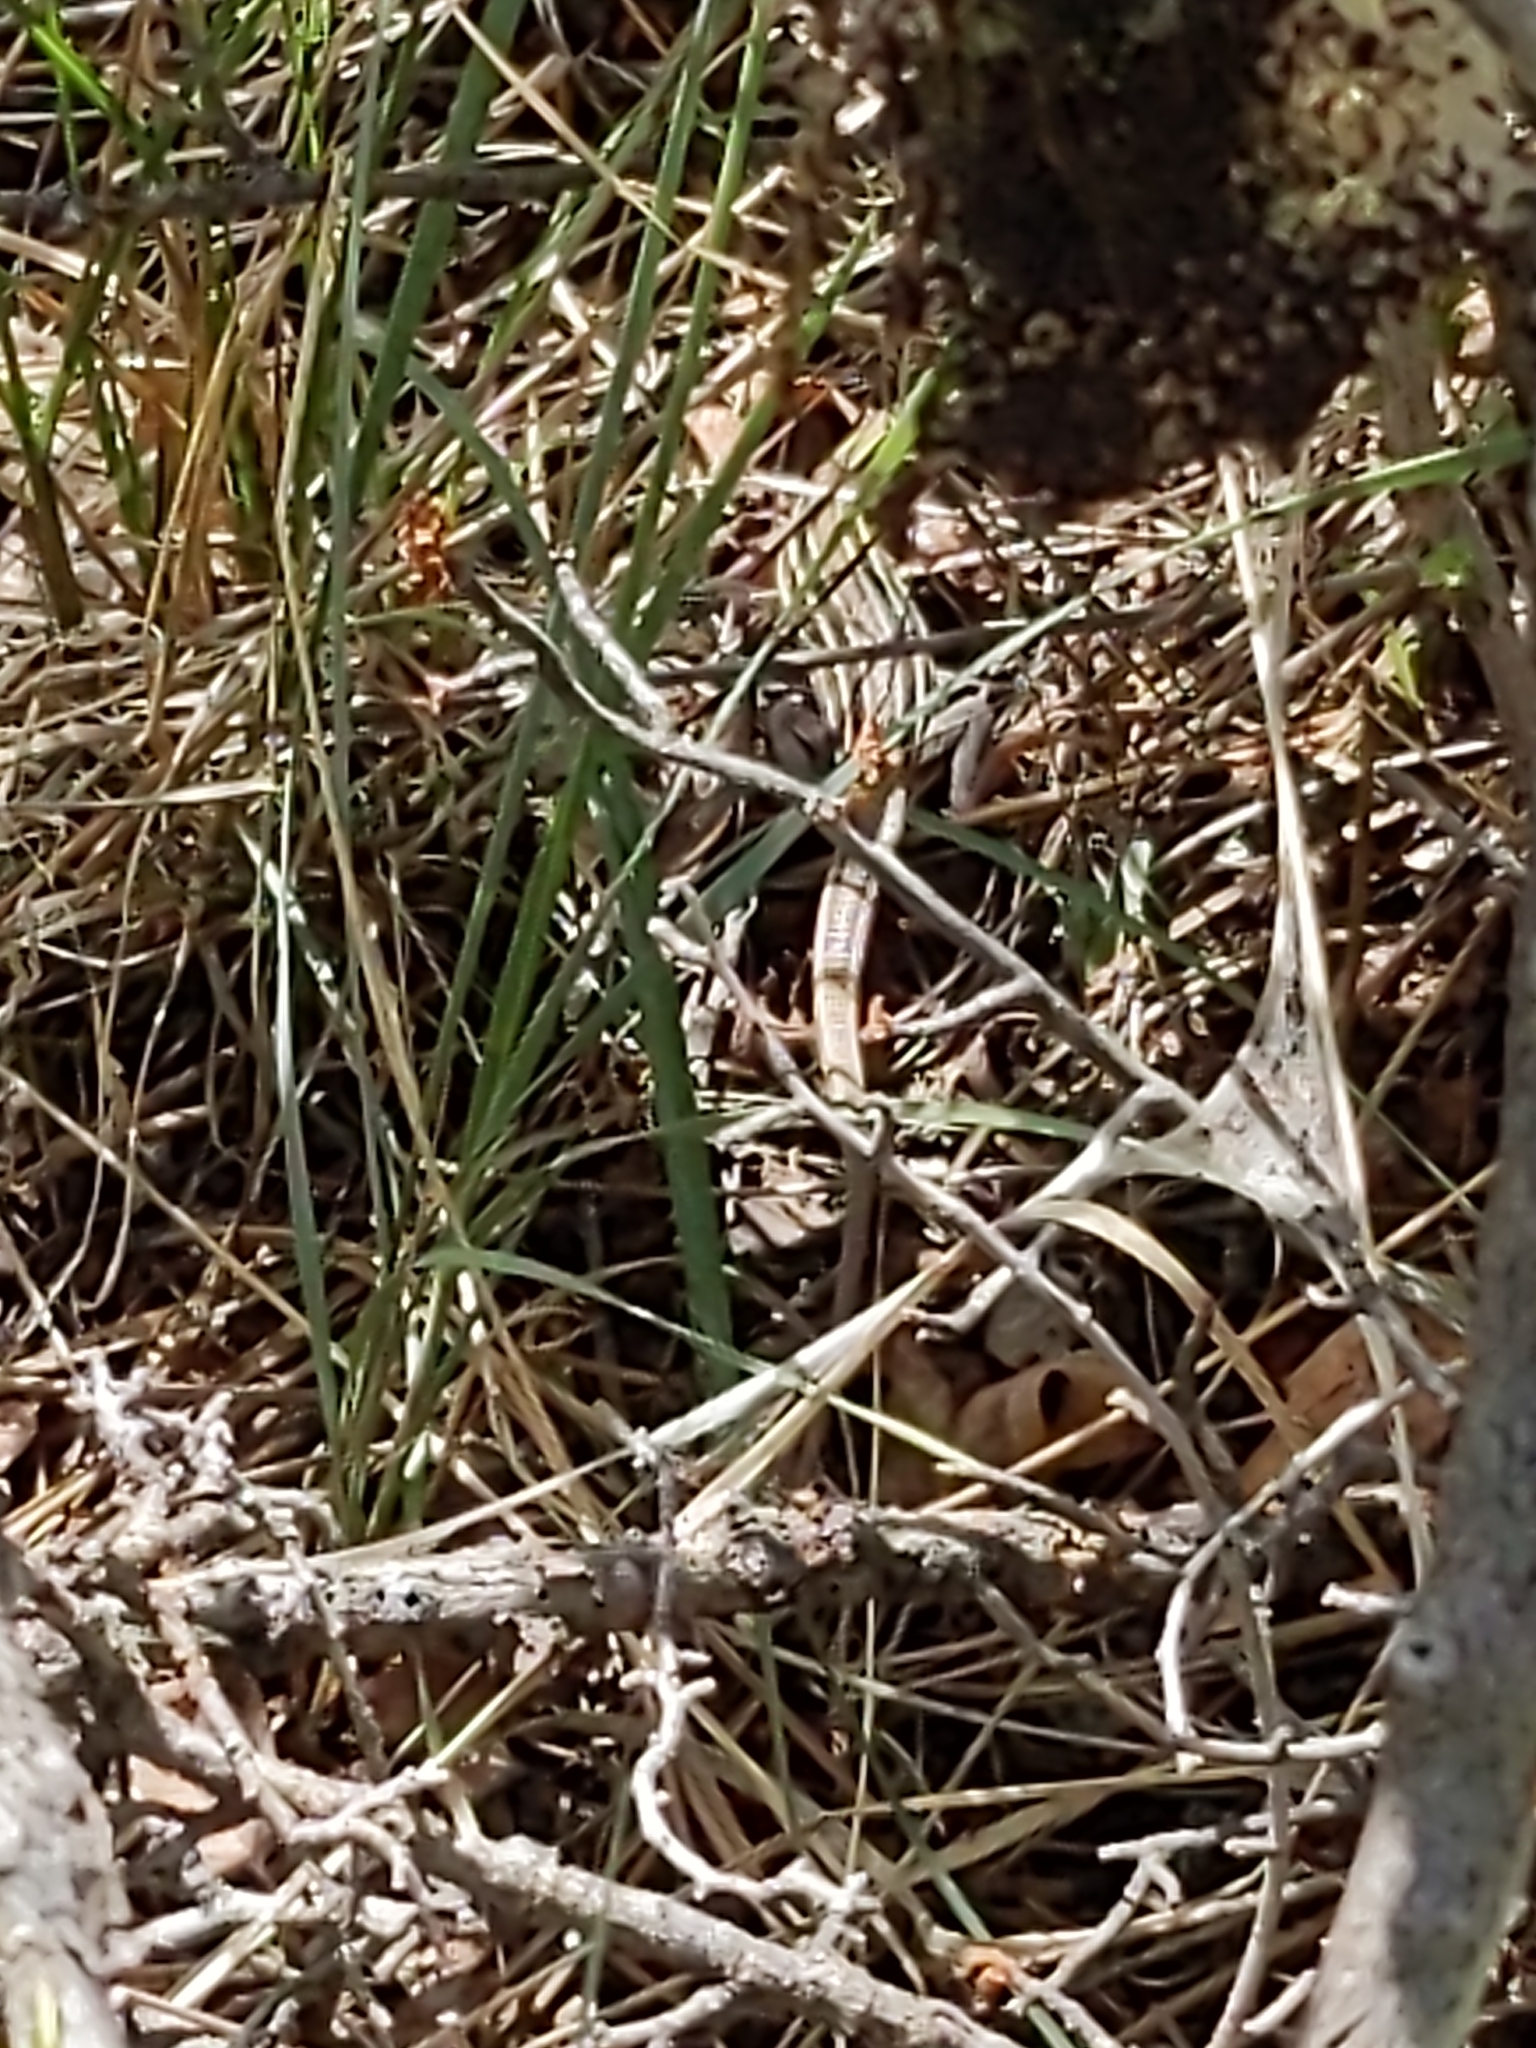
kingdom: Animalia
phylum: Chordata
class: Squamata
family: Teiidae
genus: Aspidoscelis
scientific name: Aspidoscelis sexlineatus
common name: Six-lined racerunner
